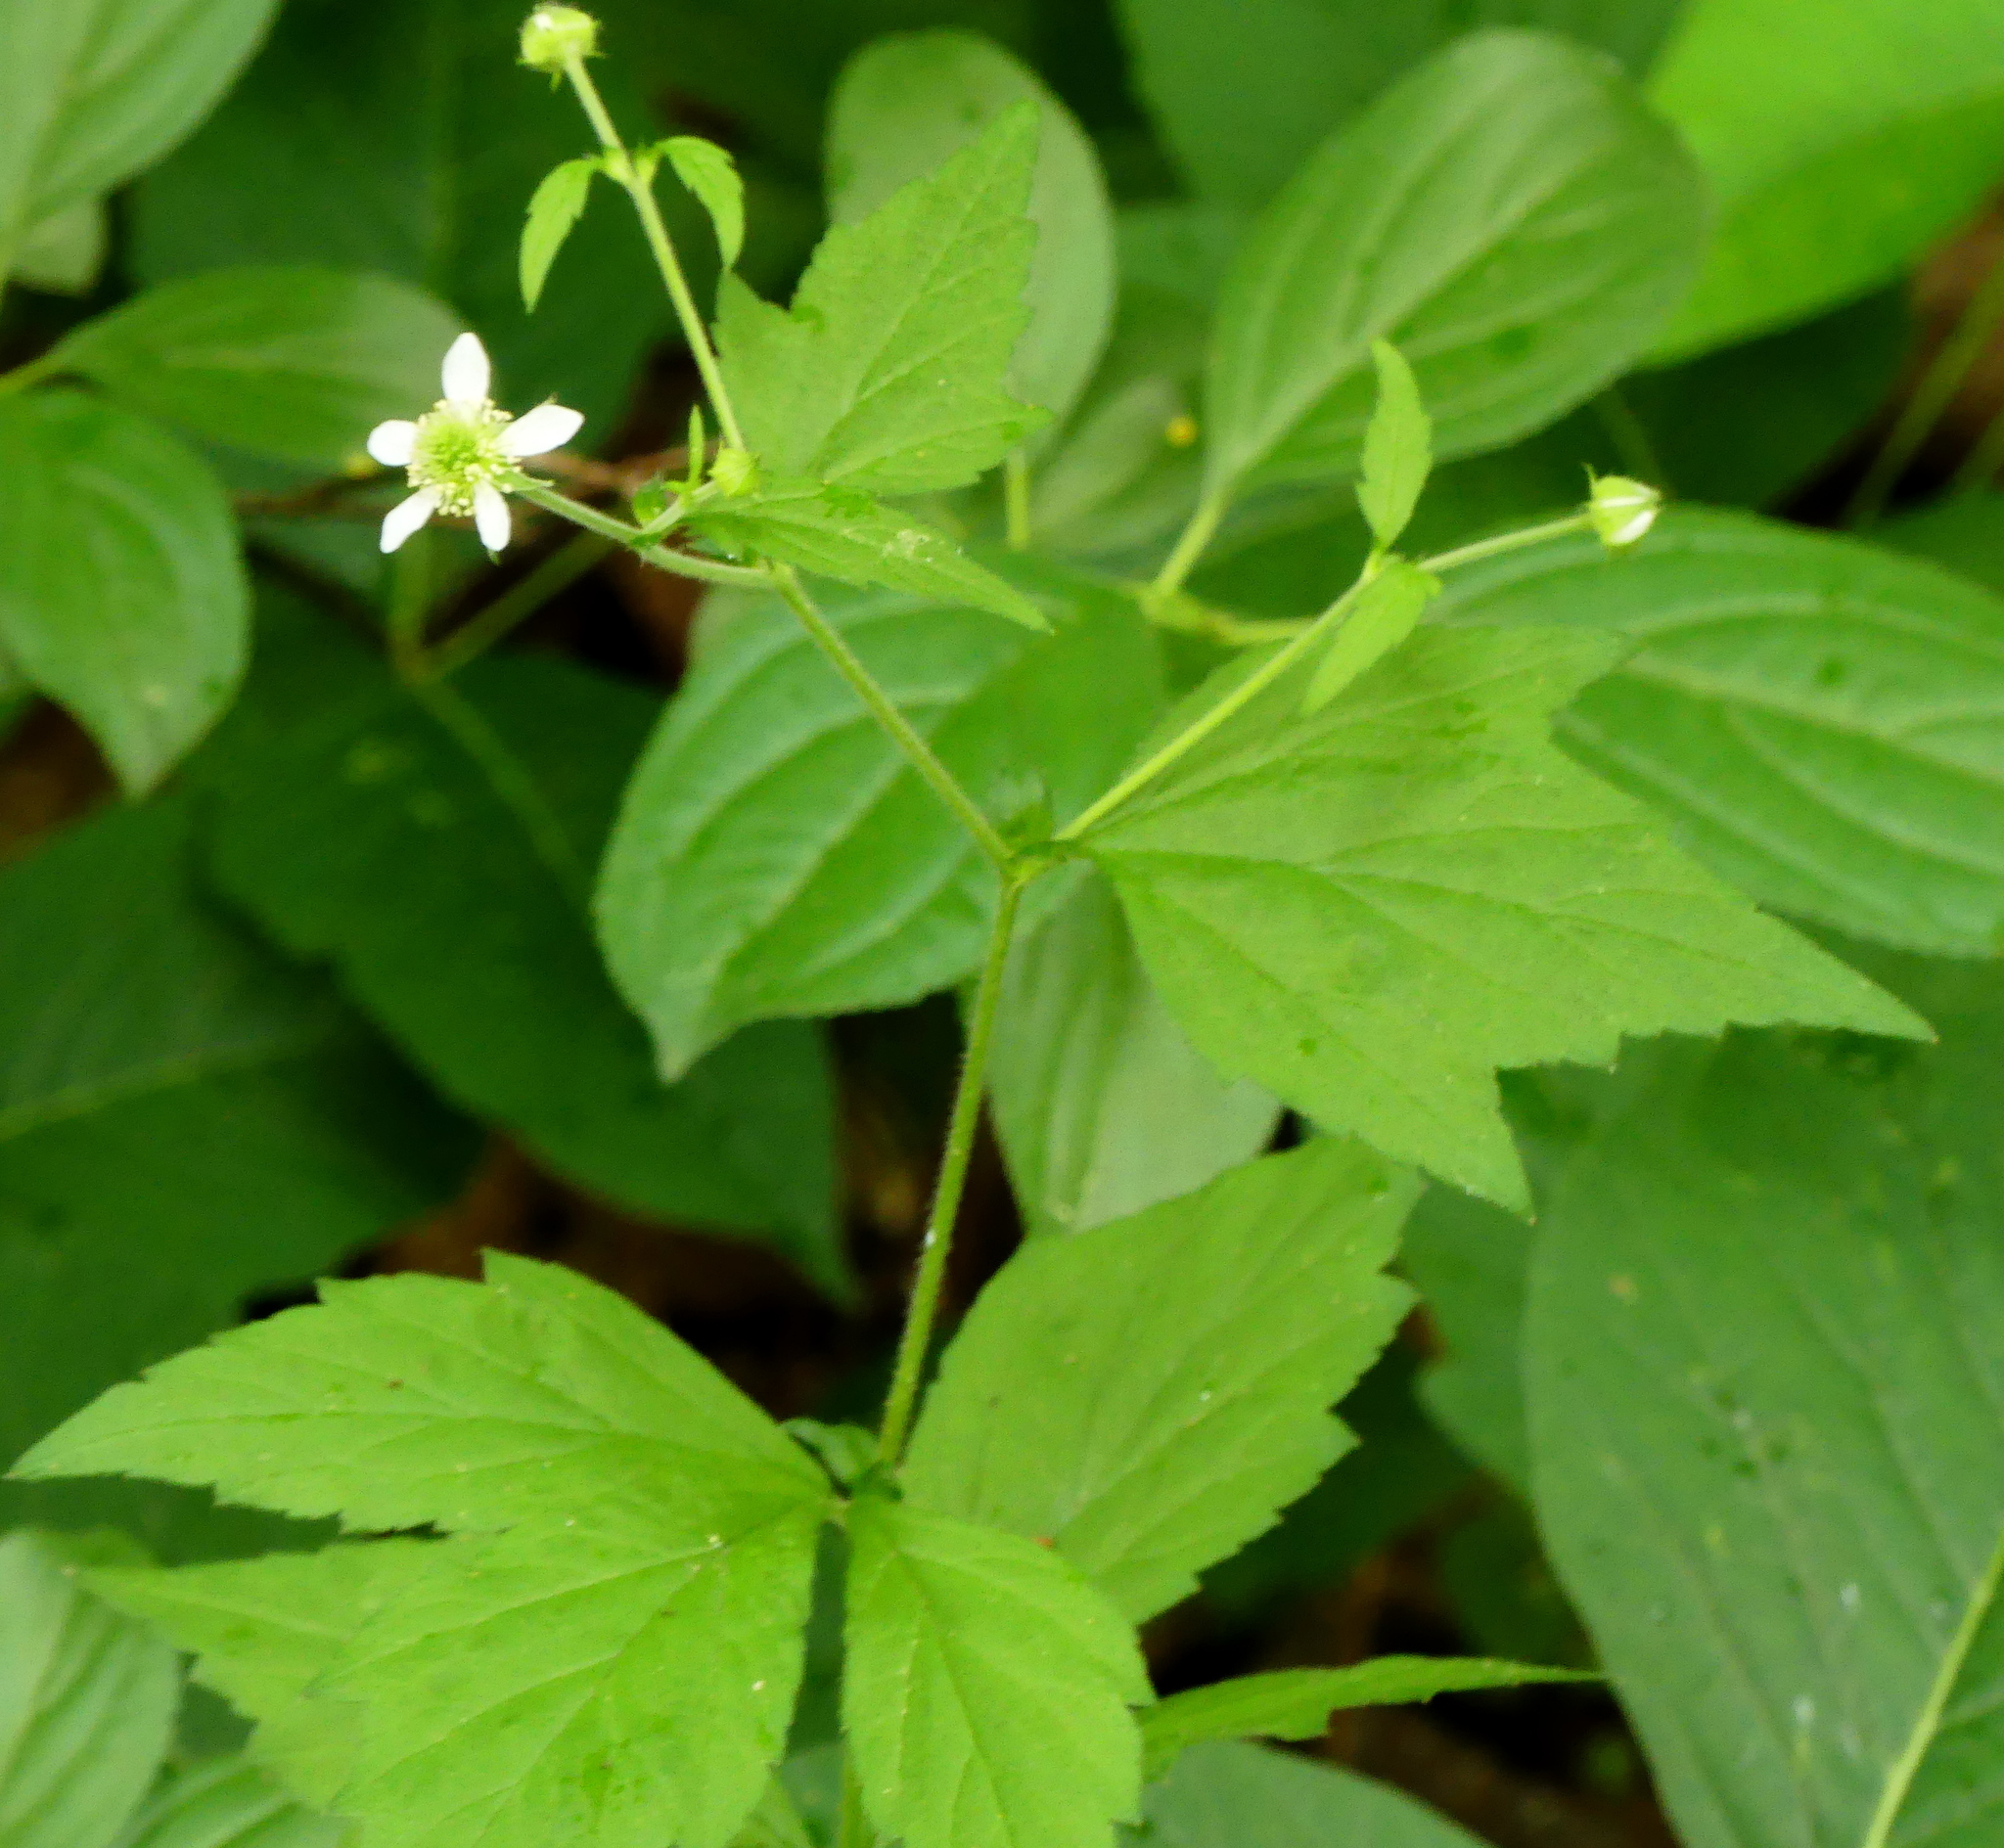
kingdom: Plantae
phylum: Tracheophyta
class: Magnoliopsida
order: Rosales
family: Rosaceae
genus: Geum
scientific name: Geum canadense
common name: White avens
